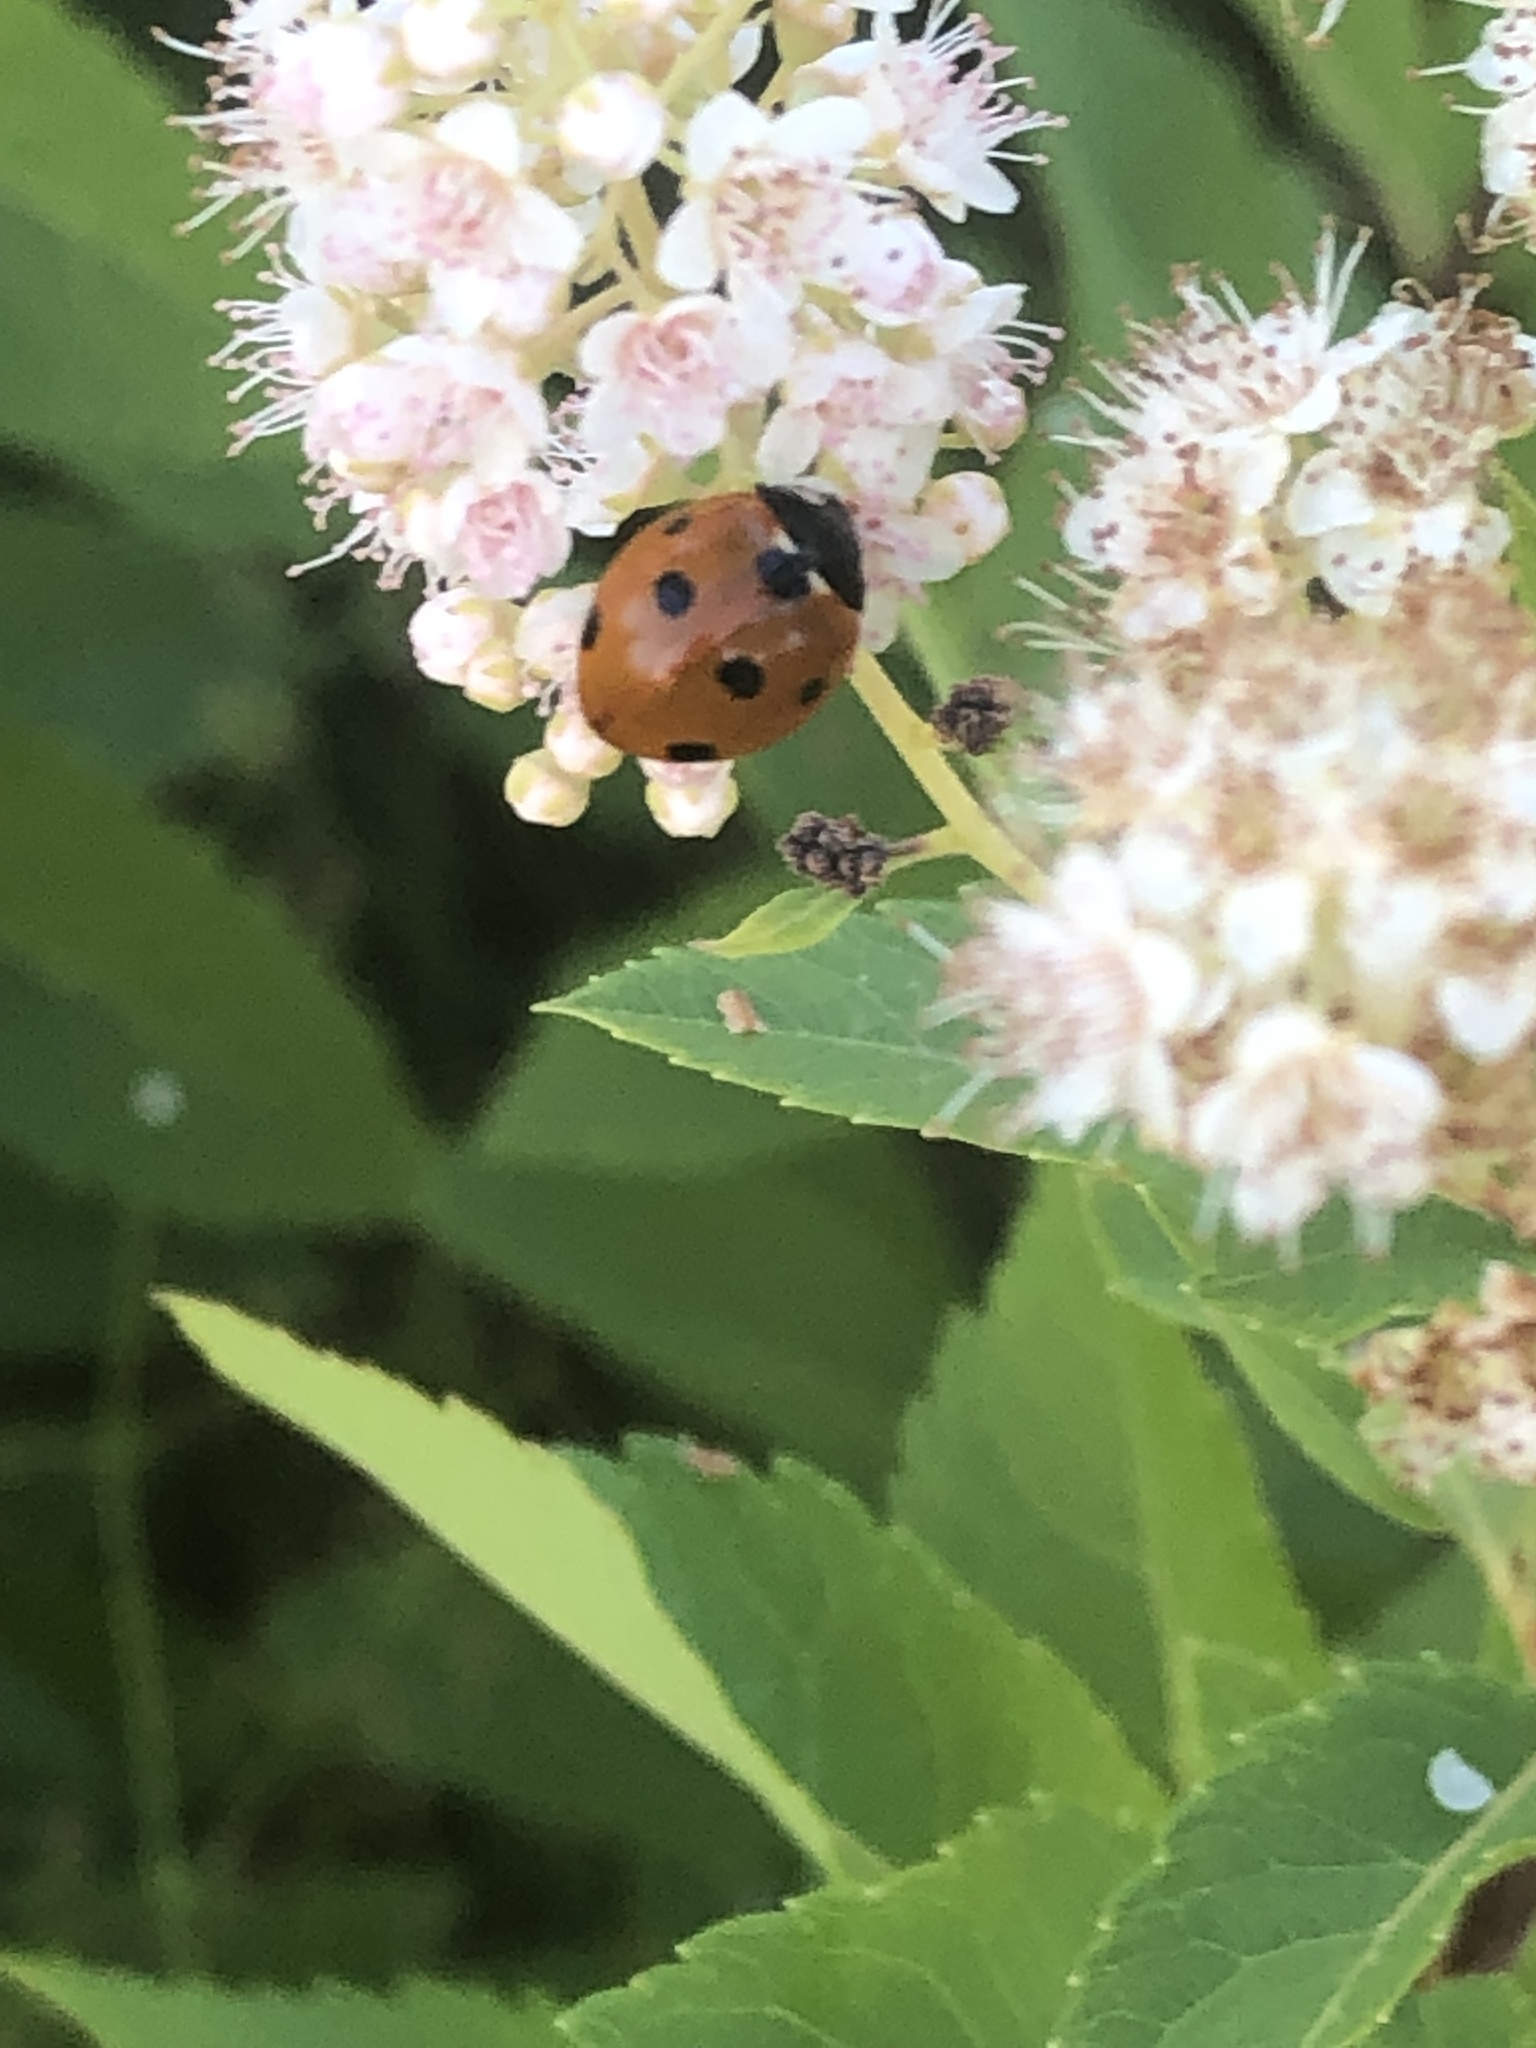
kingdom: Animalia
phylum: Arthropoda
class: Insecta
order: Coleoptera
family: Coccinellidae
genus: Coccinella
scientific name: Coccinella septempunctata
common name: Sevenspotted lady beetle
